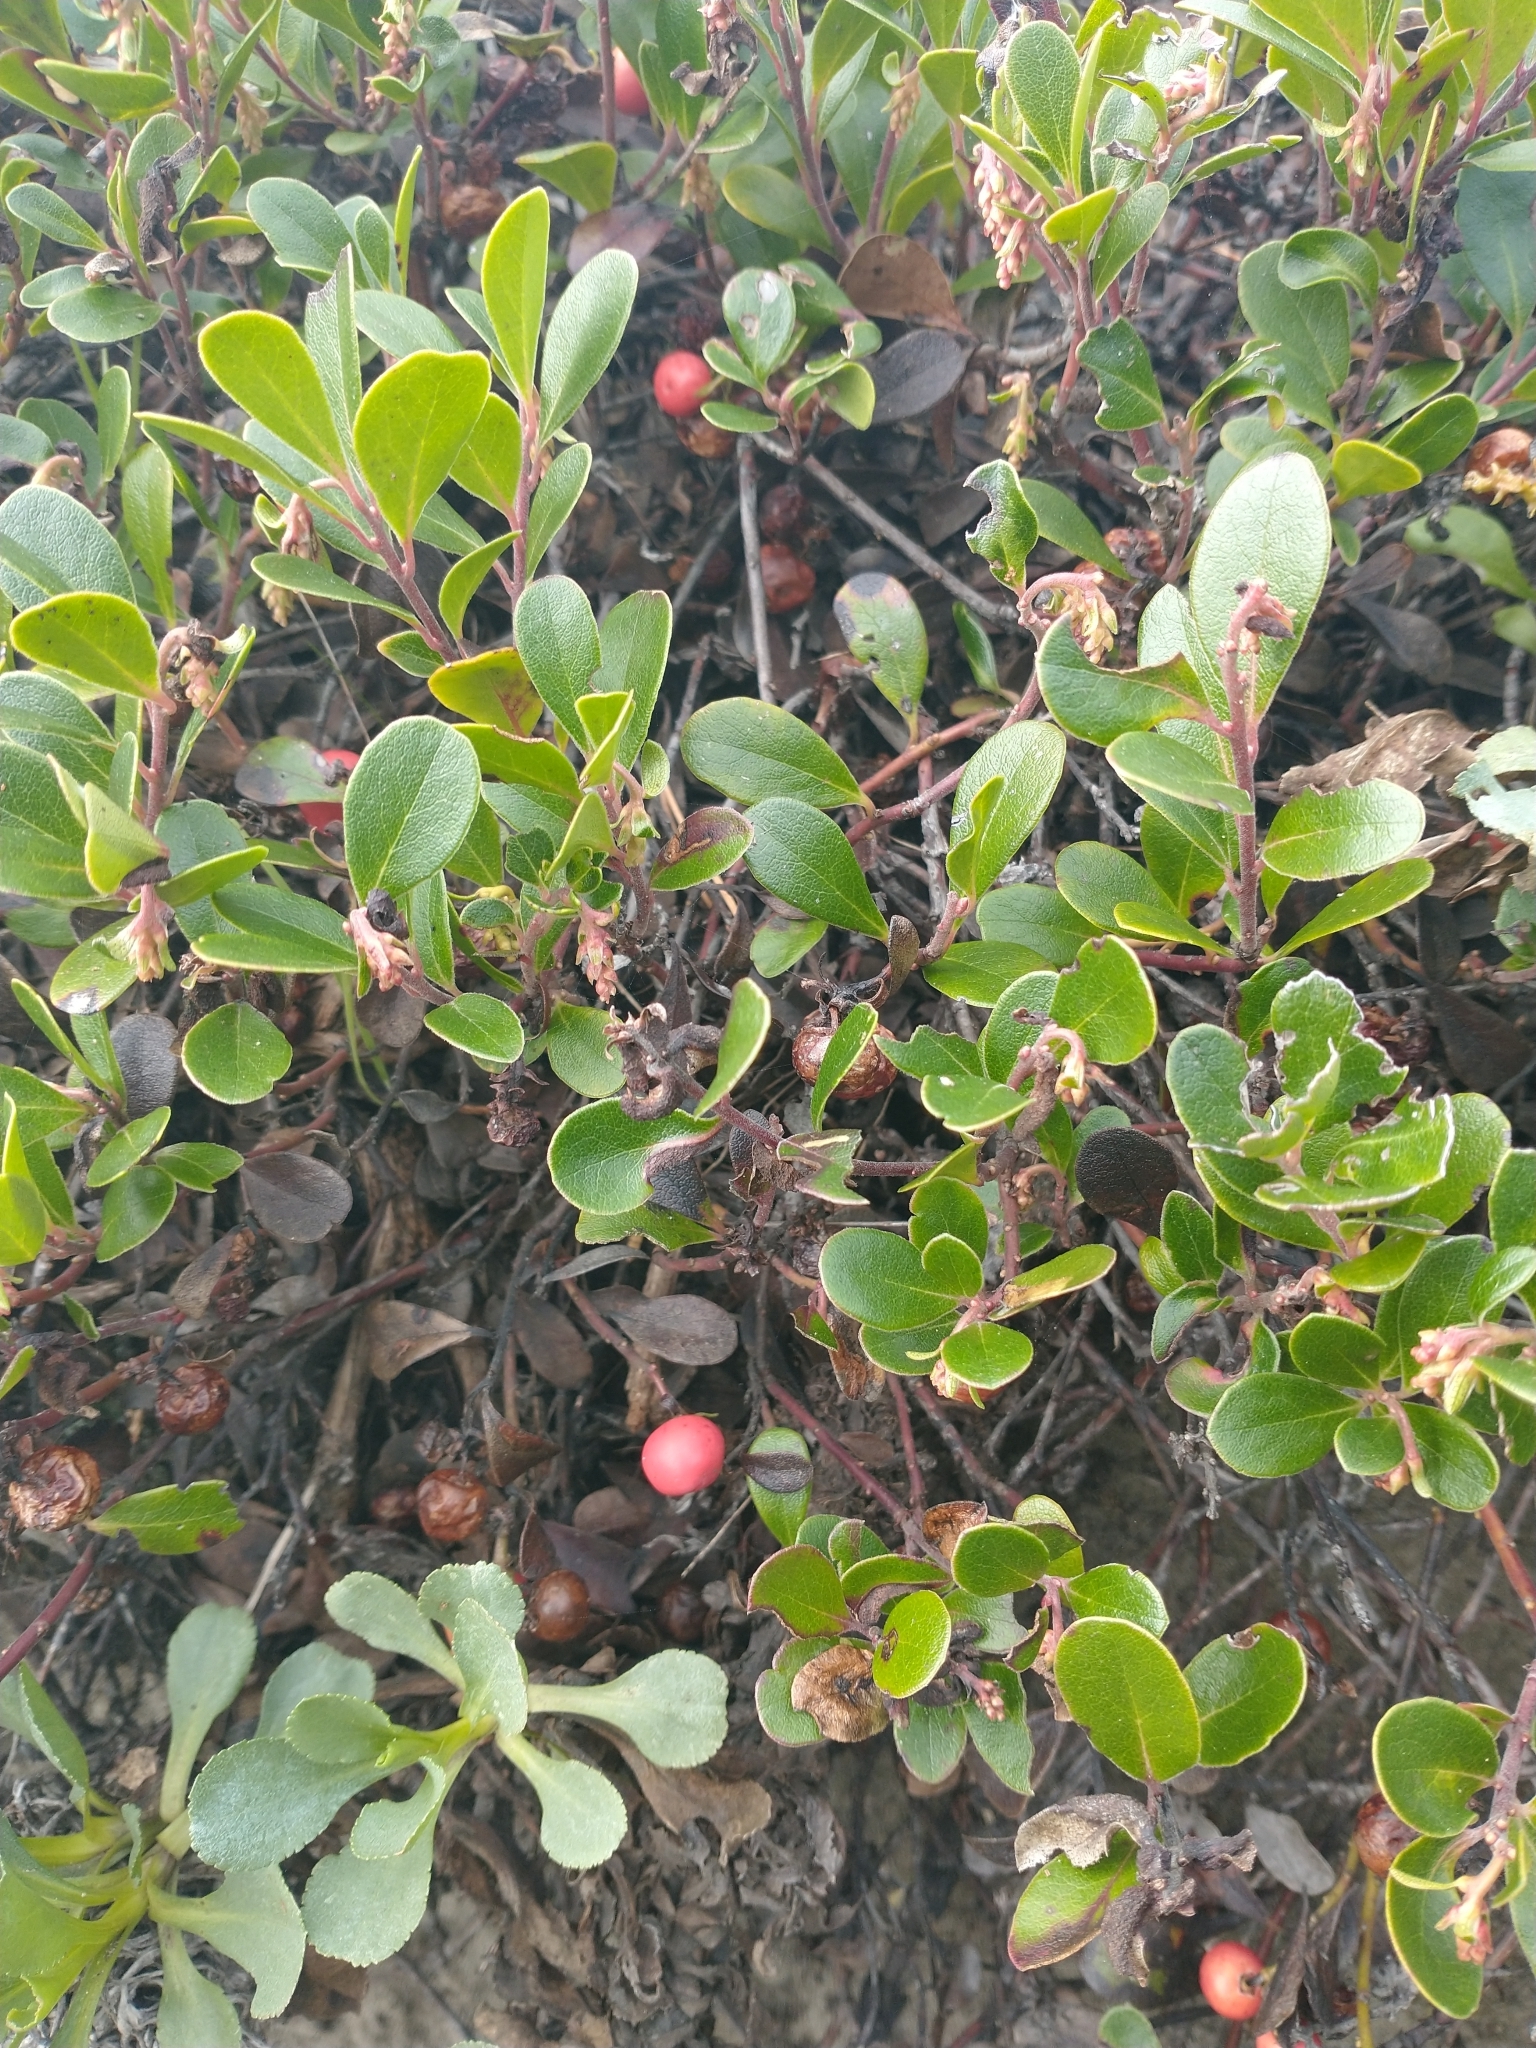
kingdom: Plantae
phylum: Tracheophyta
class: Magnoliopsida
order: Ericales
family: Ericaceae
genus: Arctostaphylos
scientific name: Arctostaphylos uva-ursi
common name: Bearberry
